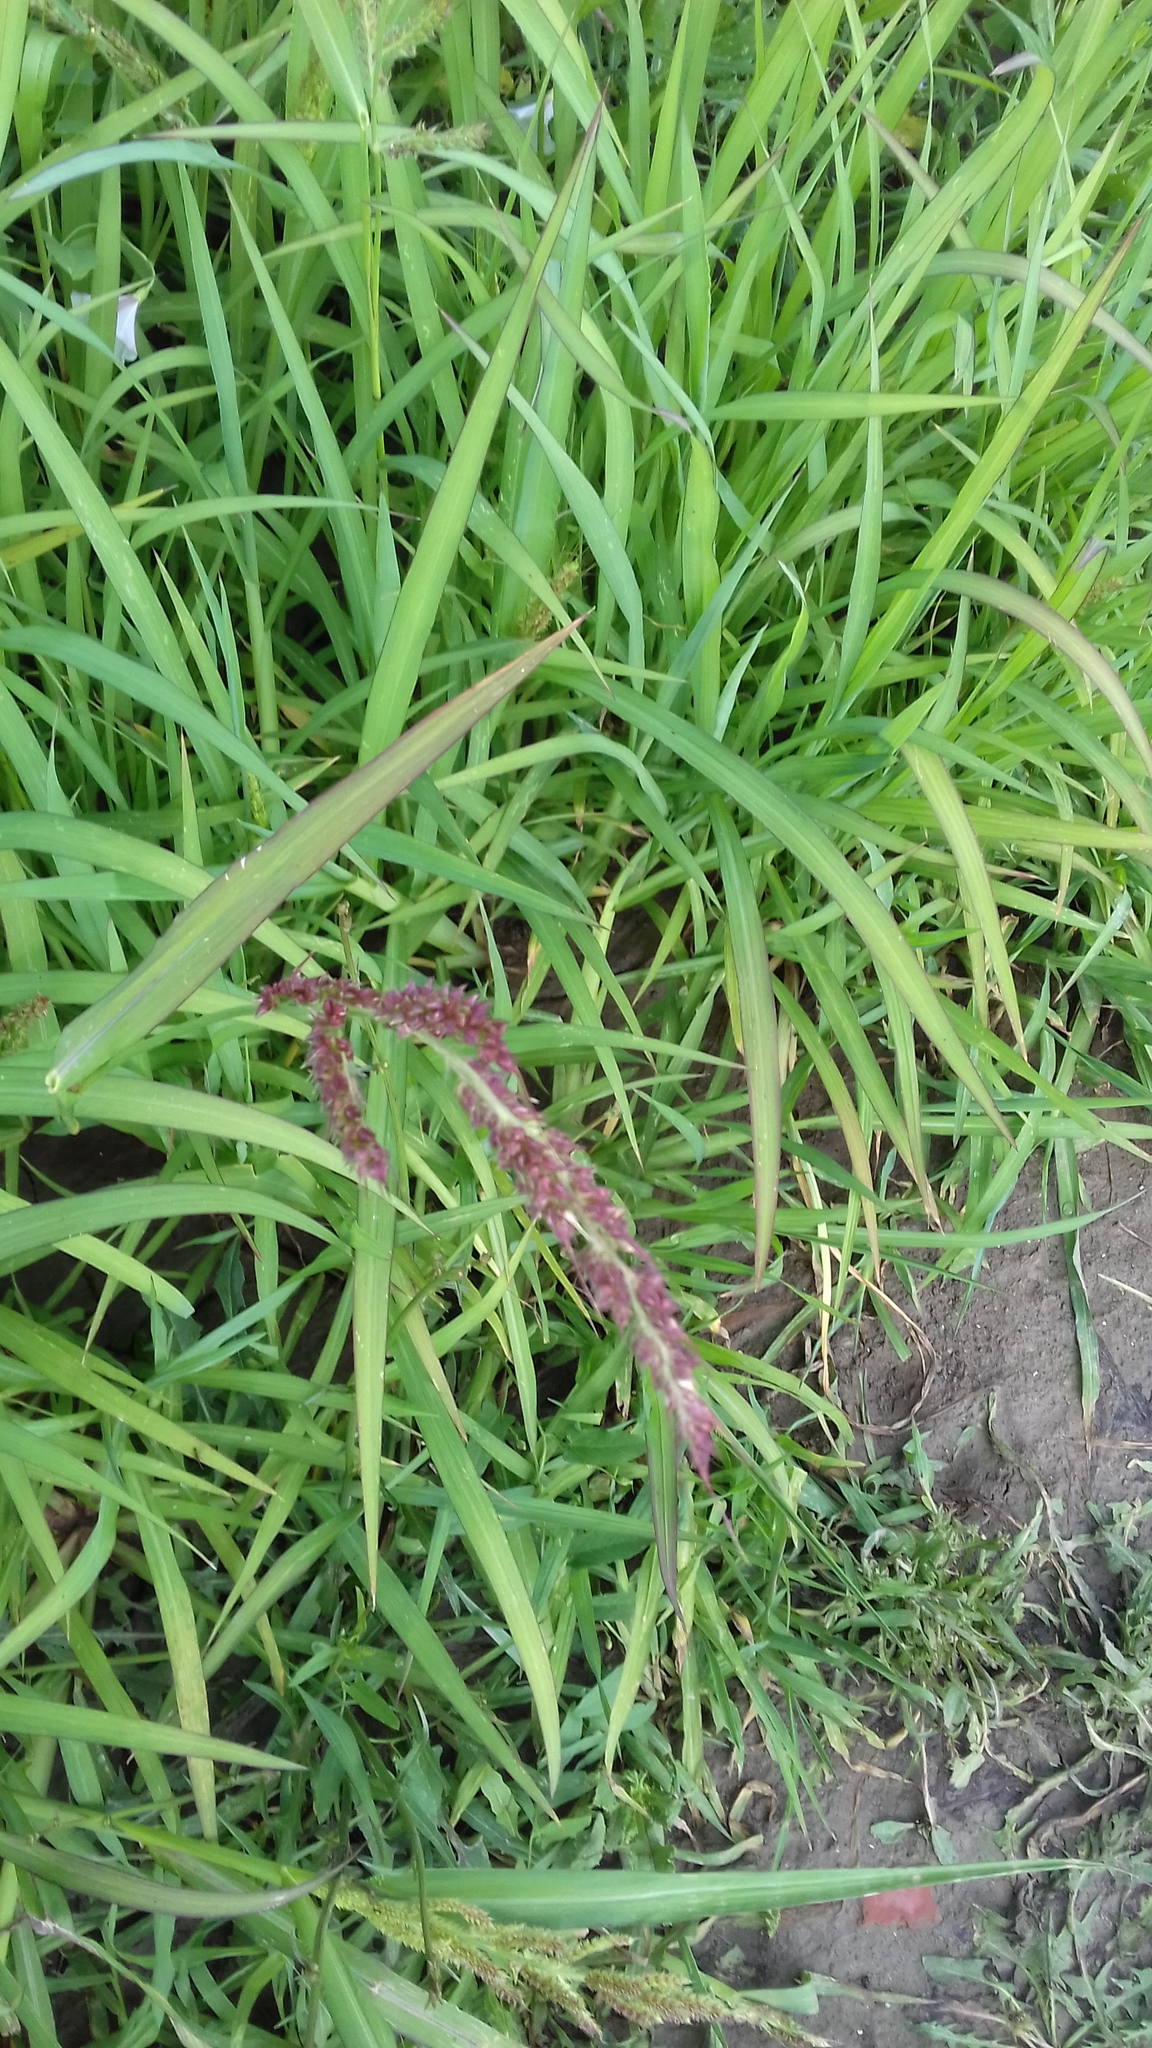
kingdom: Plantae
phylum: Tracheophyta
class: Liliopsida
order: Poales
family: Poaceae
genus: Echinochloa
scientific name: Echinochloa crus-galli
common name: Cockspur
